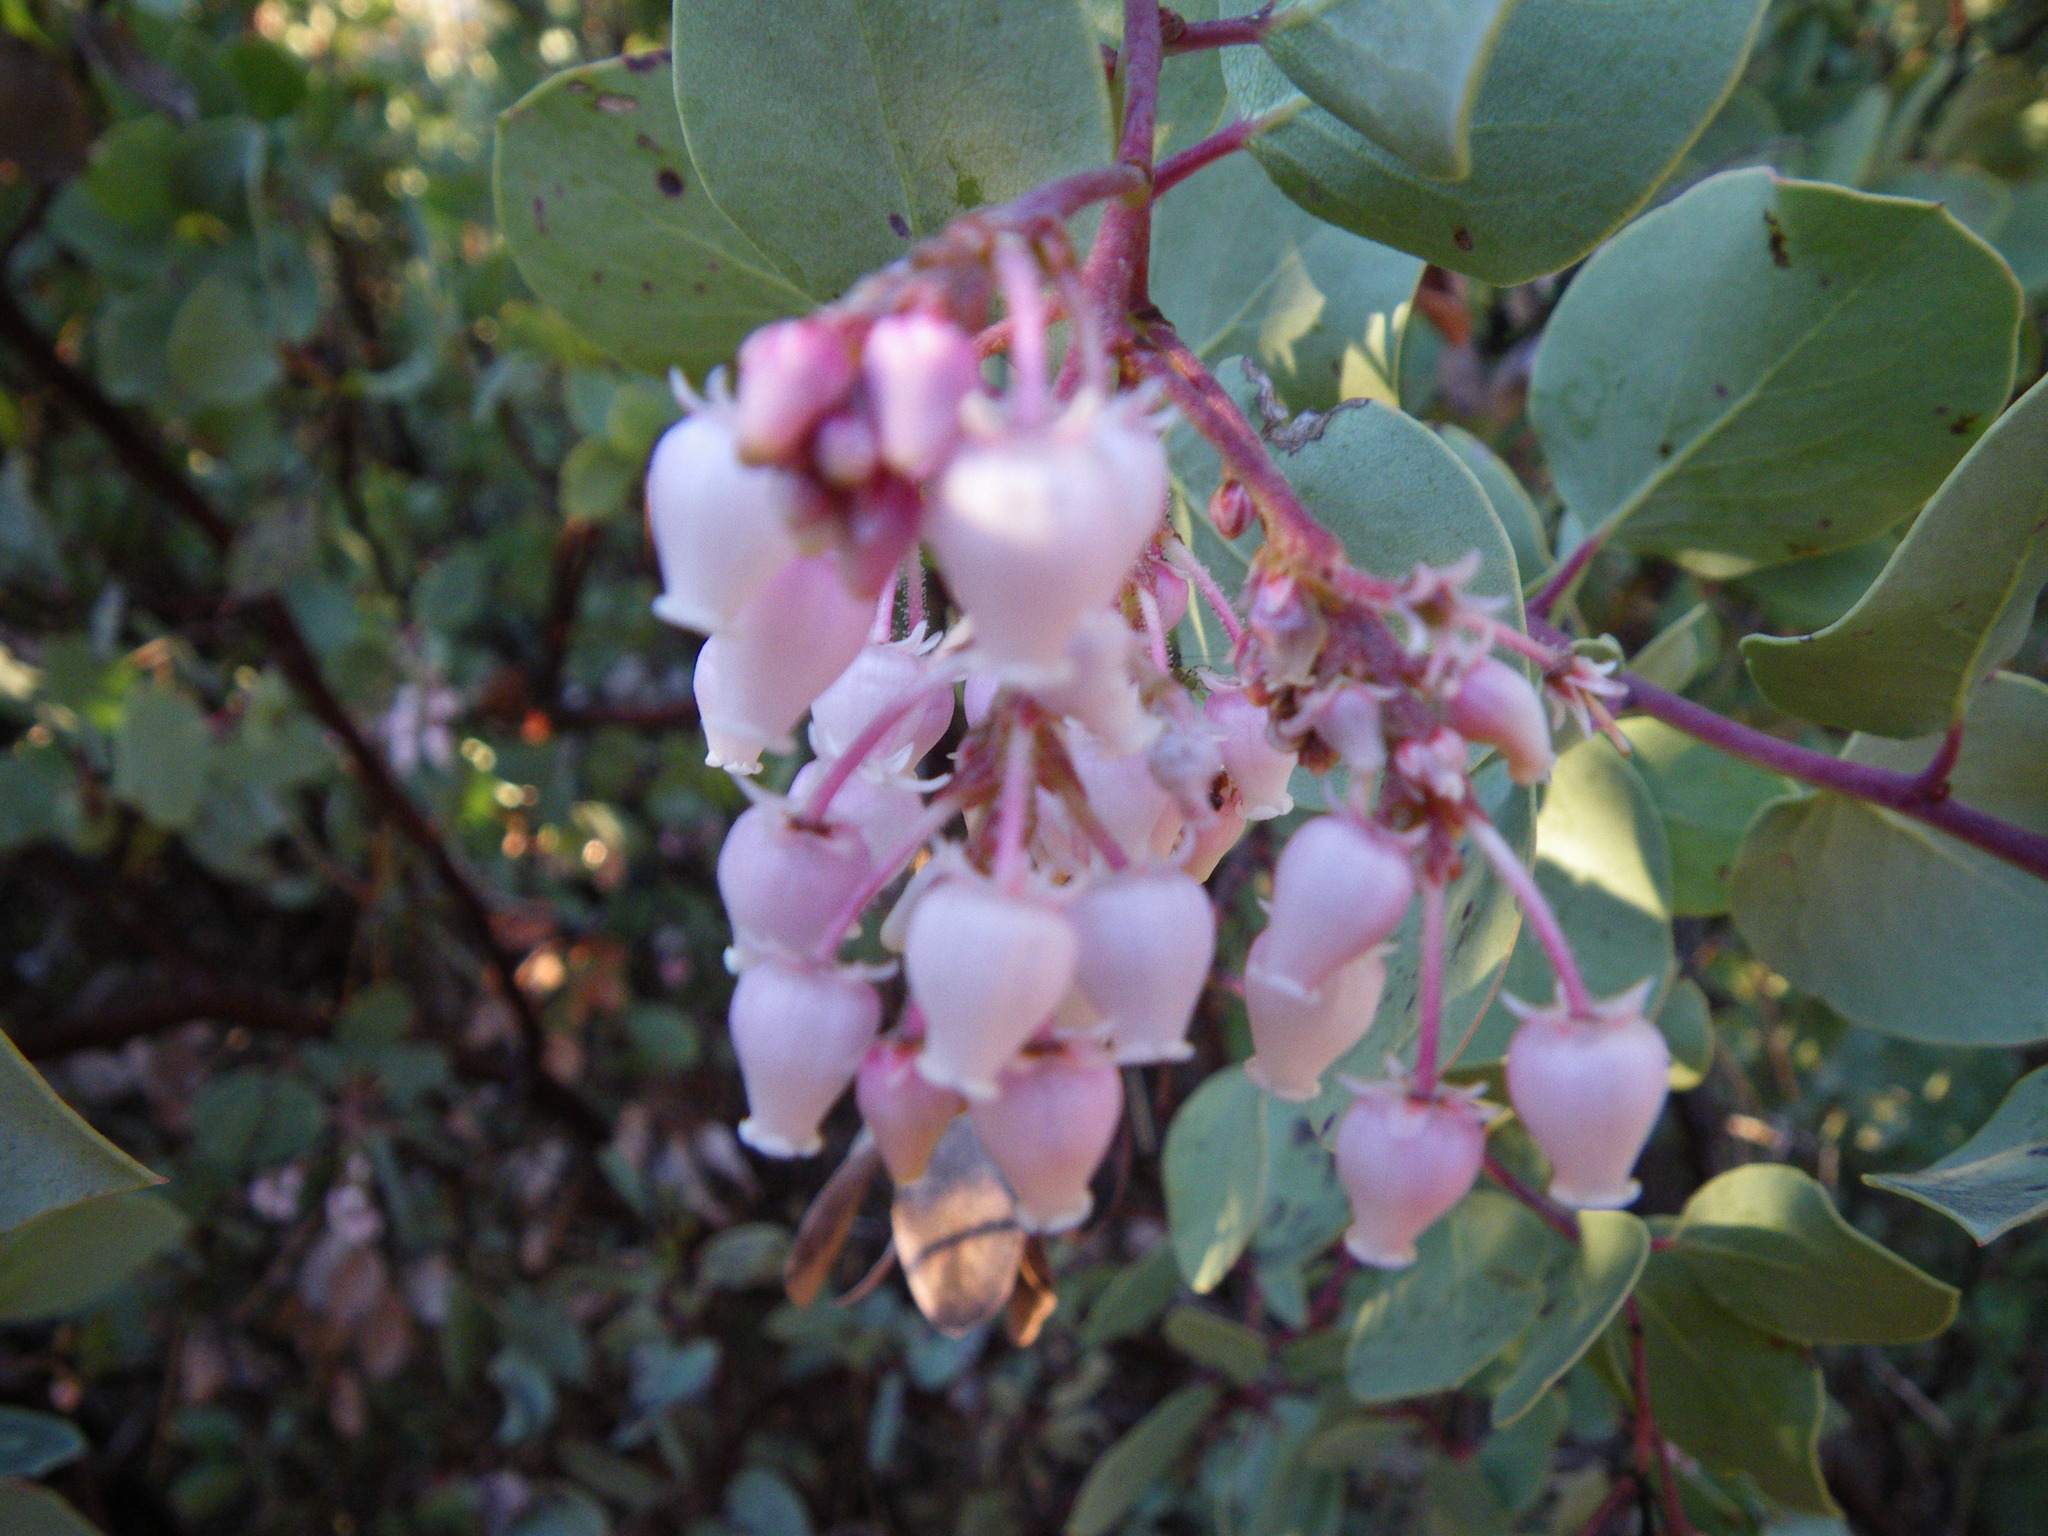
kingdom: Plantae
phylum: Tracheophyta
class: Magnoliopsida
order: Ericales
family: Ericaceae
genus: Arctostaphylos
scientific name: Arctostaphylos viscida
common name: White-leaf manzanita
